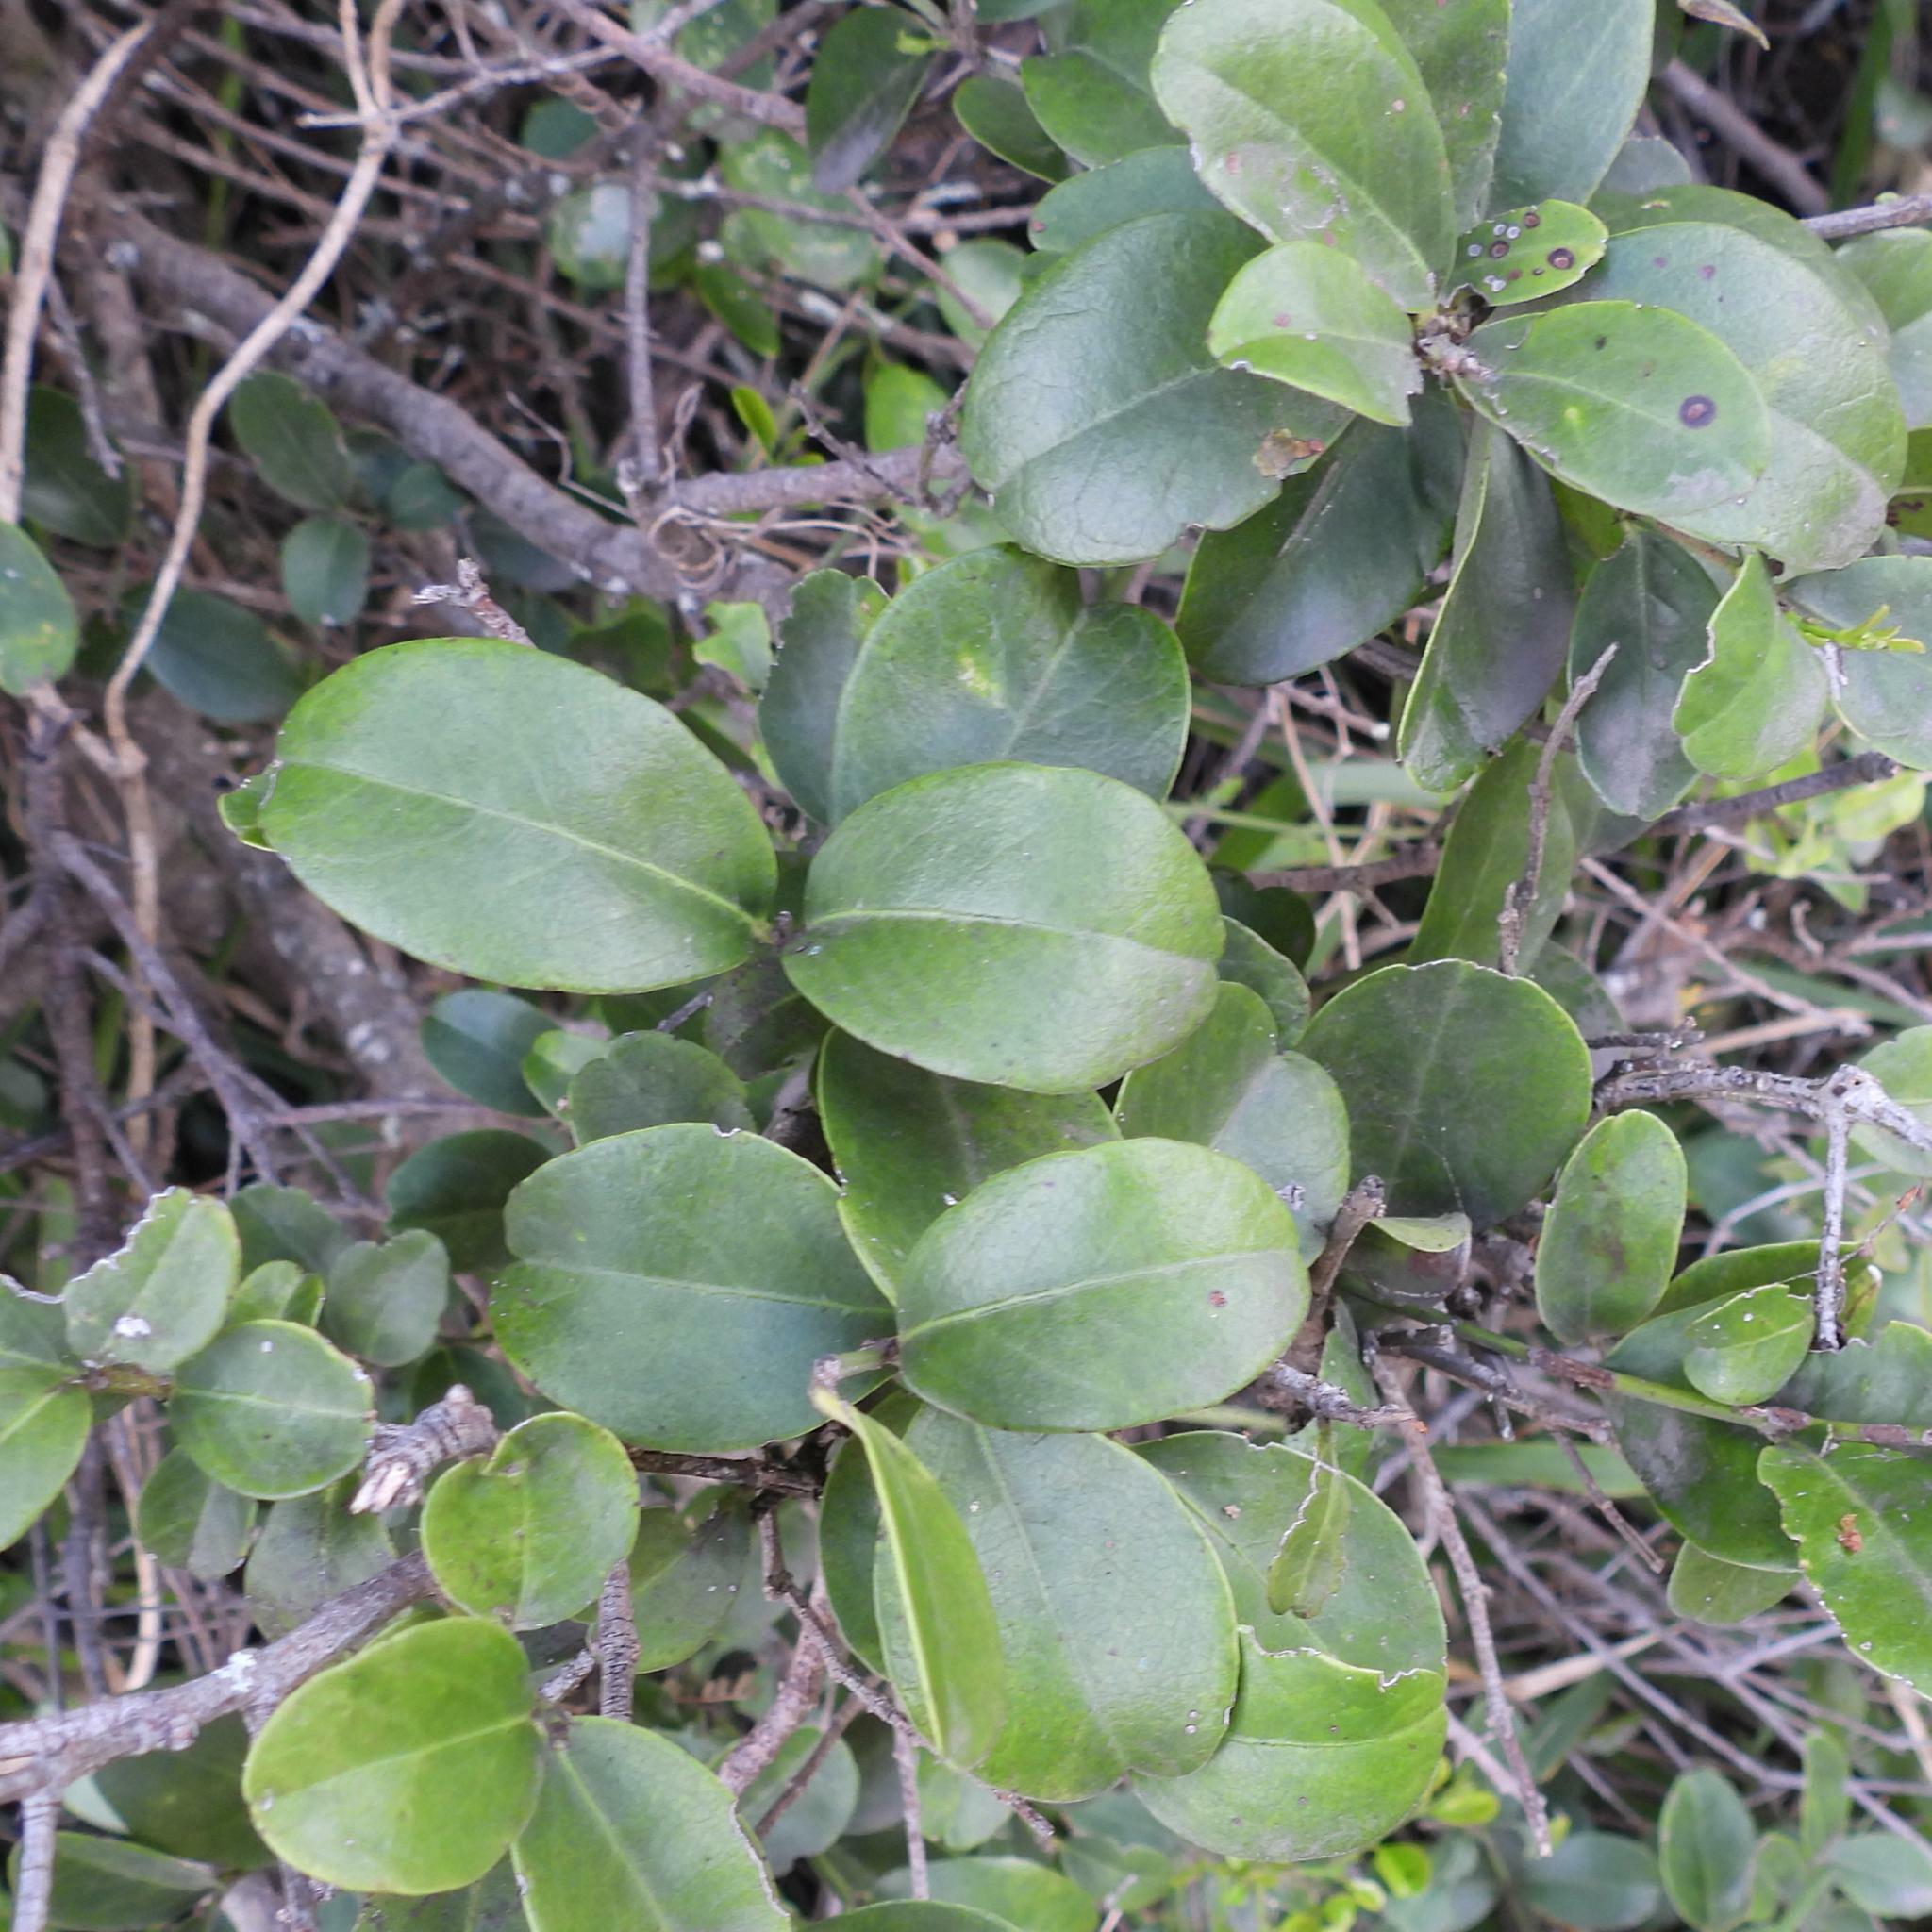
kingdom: Plantae
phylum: Tracheophyta
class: Magnoliopsida
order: Rosales
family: Rhamnaceae
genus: Scutia
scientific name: Scutia myrtina
